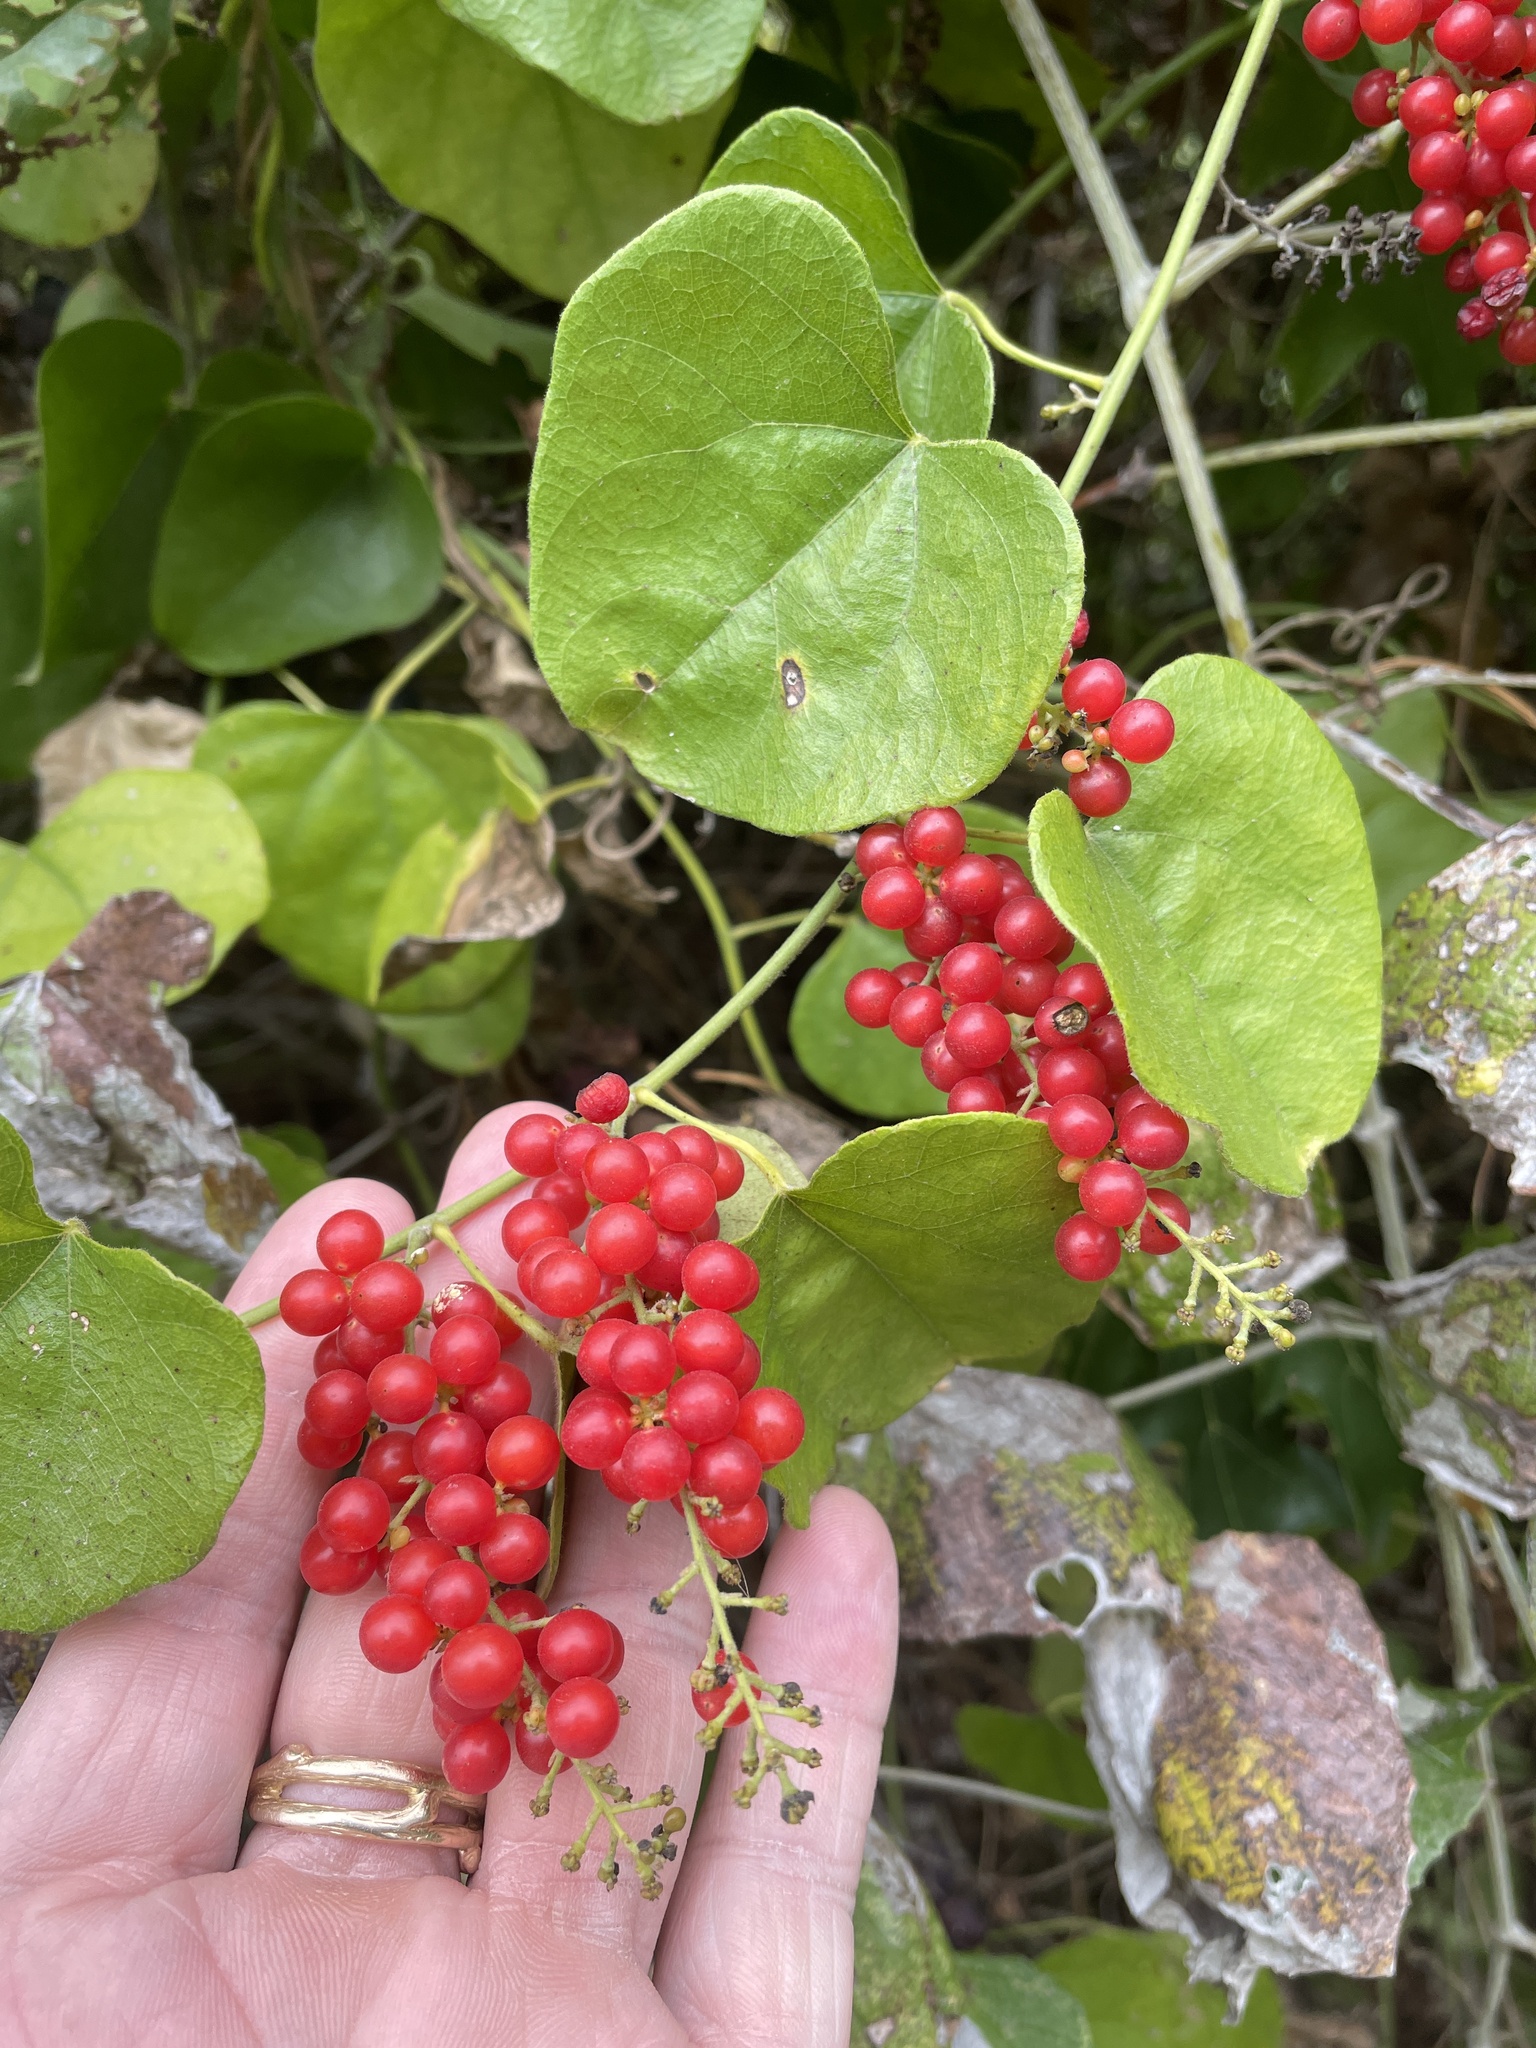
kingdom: Plantae
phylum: Tracheophyta
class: Magnoliopsida
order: Ranunculales
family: Menispermaceae
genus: Cocculus
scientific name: Cocculus carolinus
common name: Carolina moonseed
